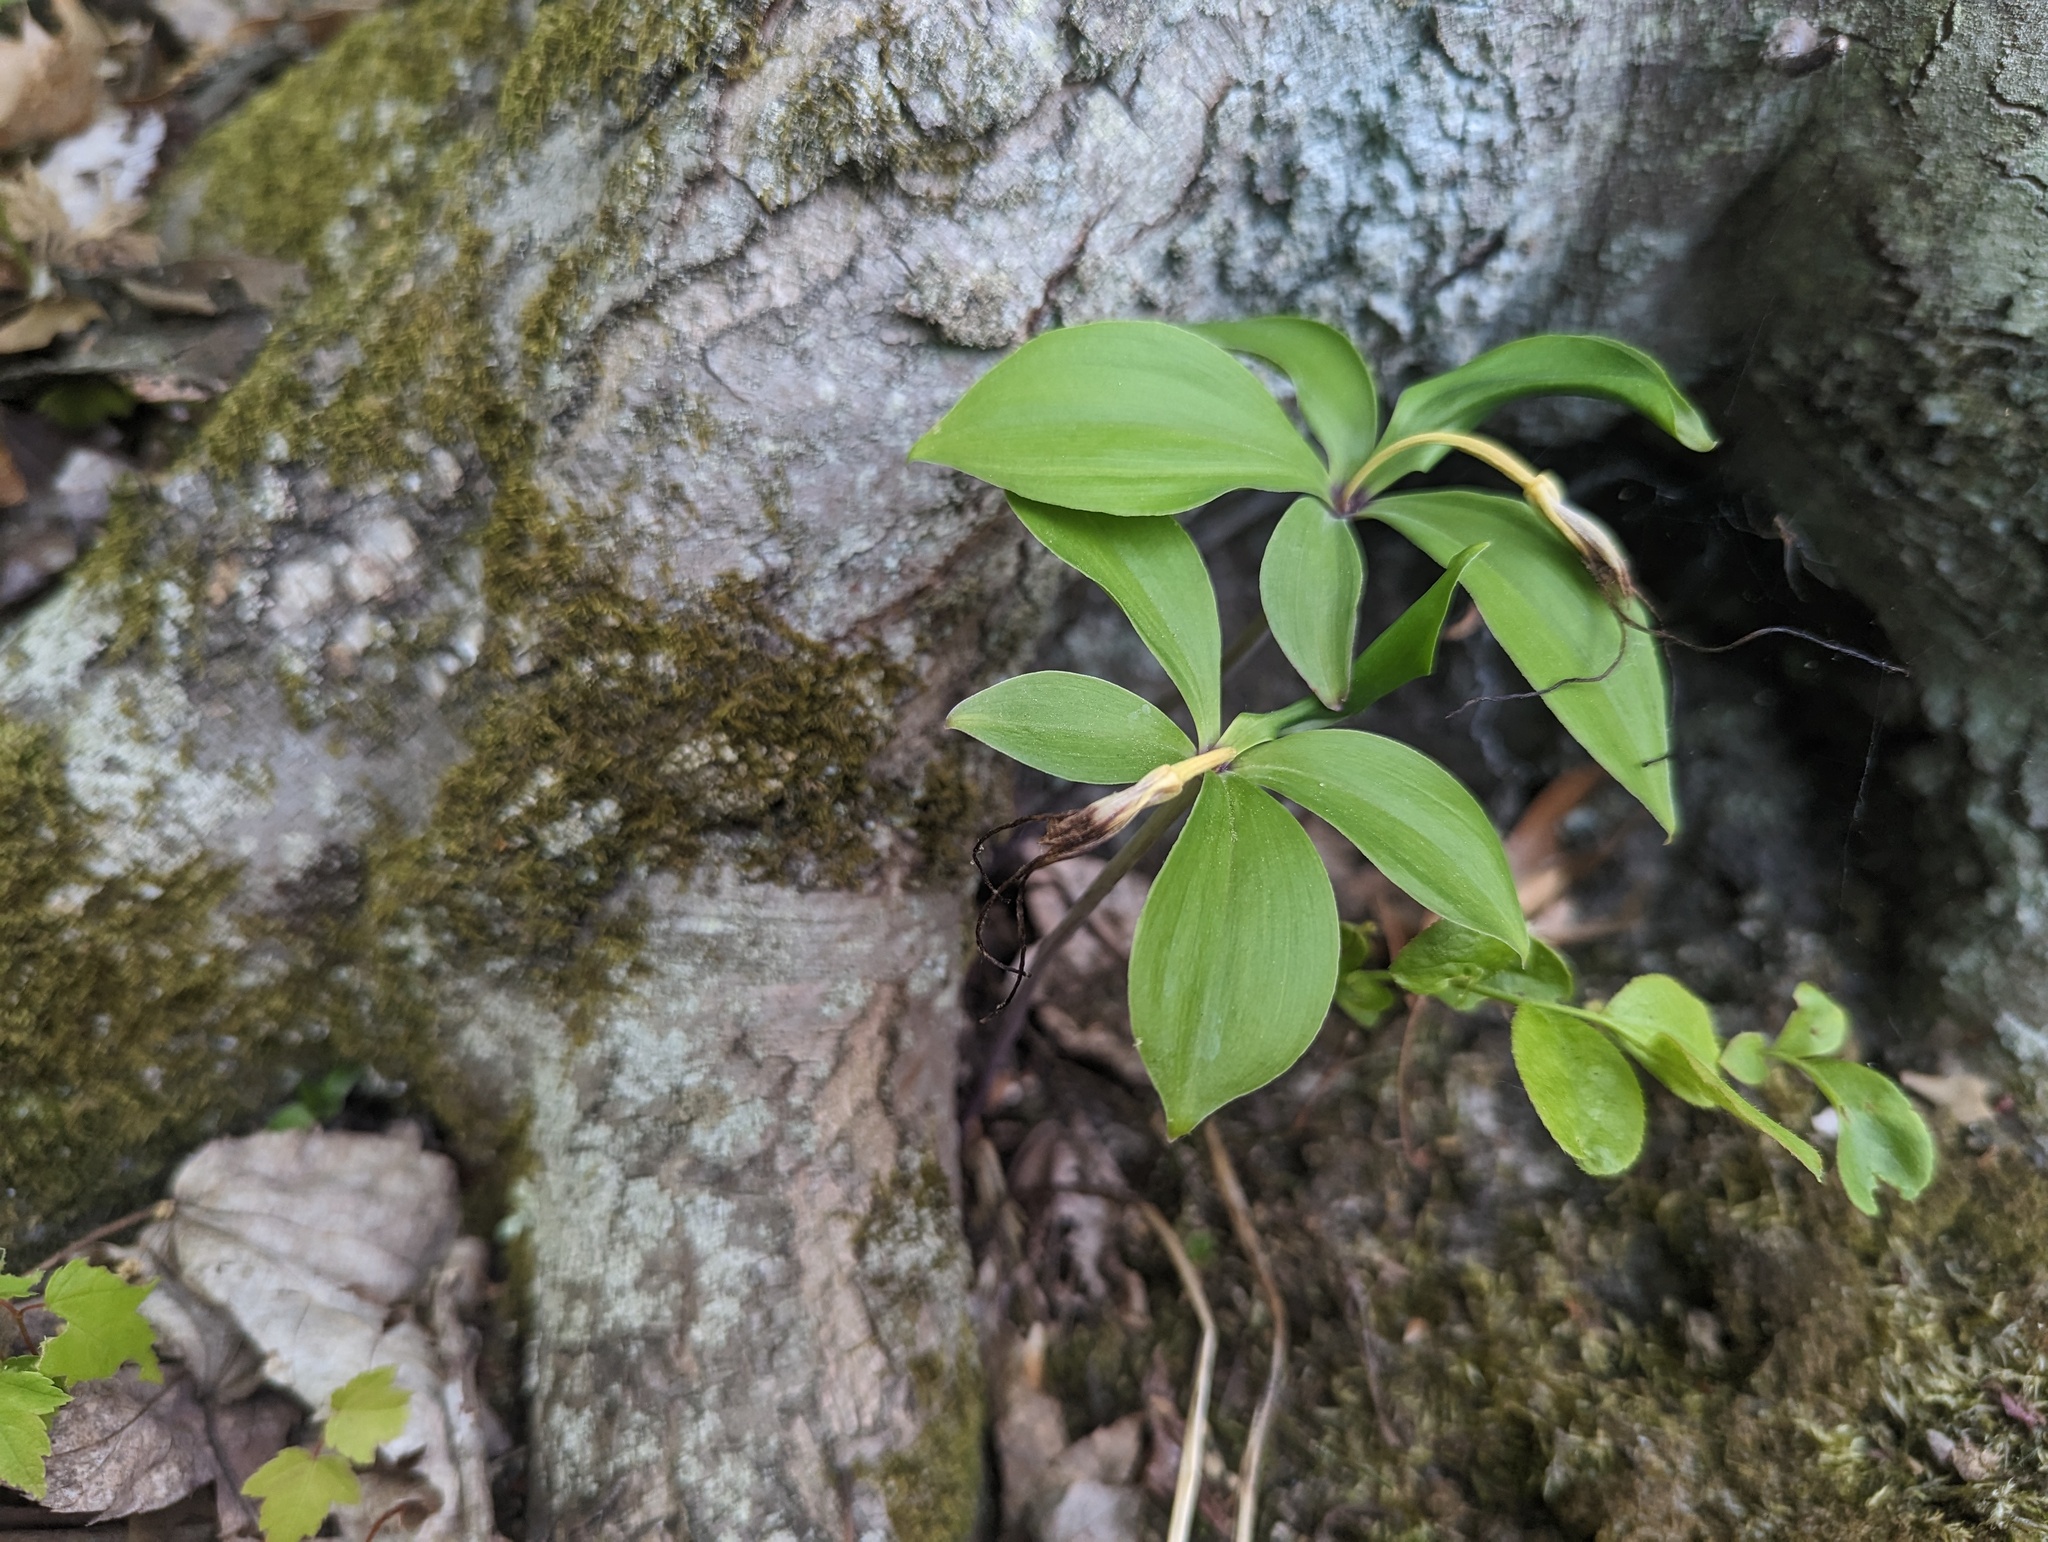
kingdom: Plantae
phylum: Tracheophyta
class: Liliopsida
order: Asparagales
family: Orchidaceae
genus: Isotria
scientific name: Isotria verticillata
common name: Large whorled pogonia
